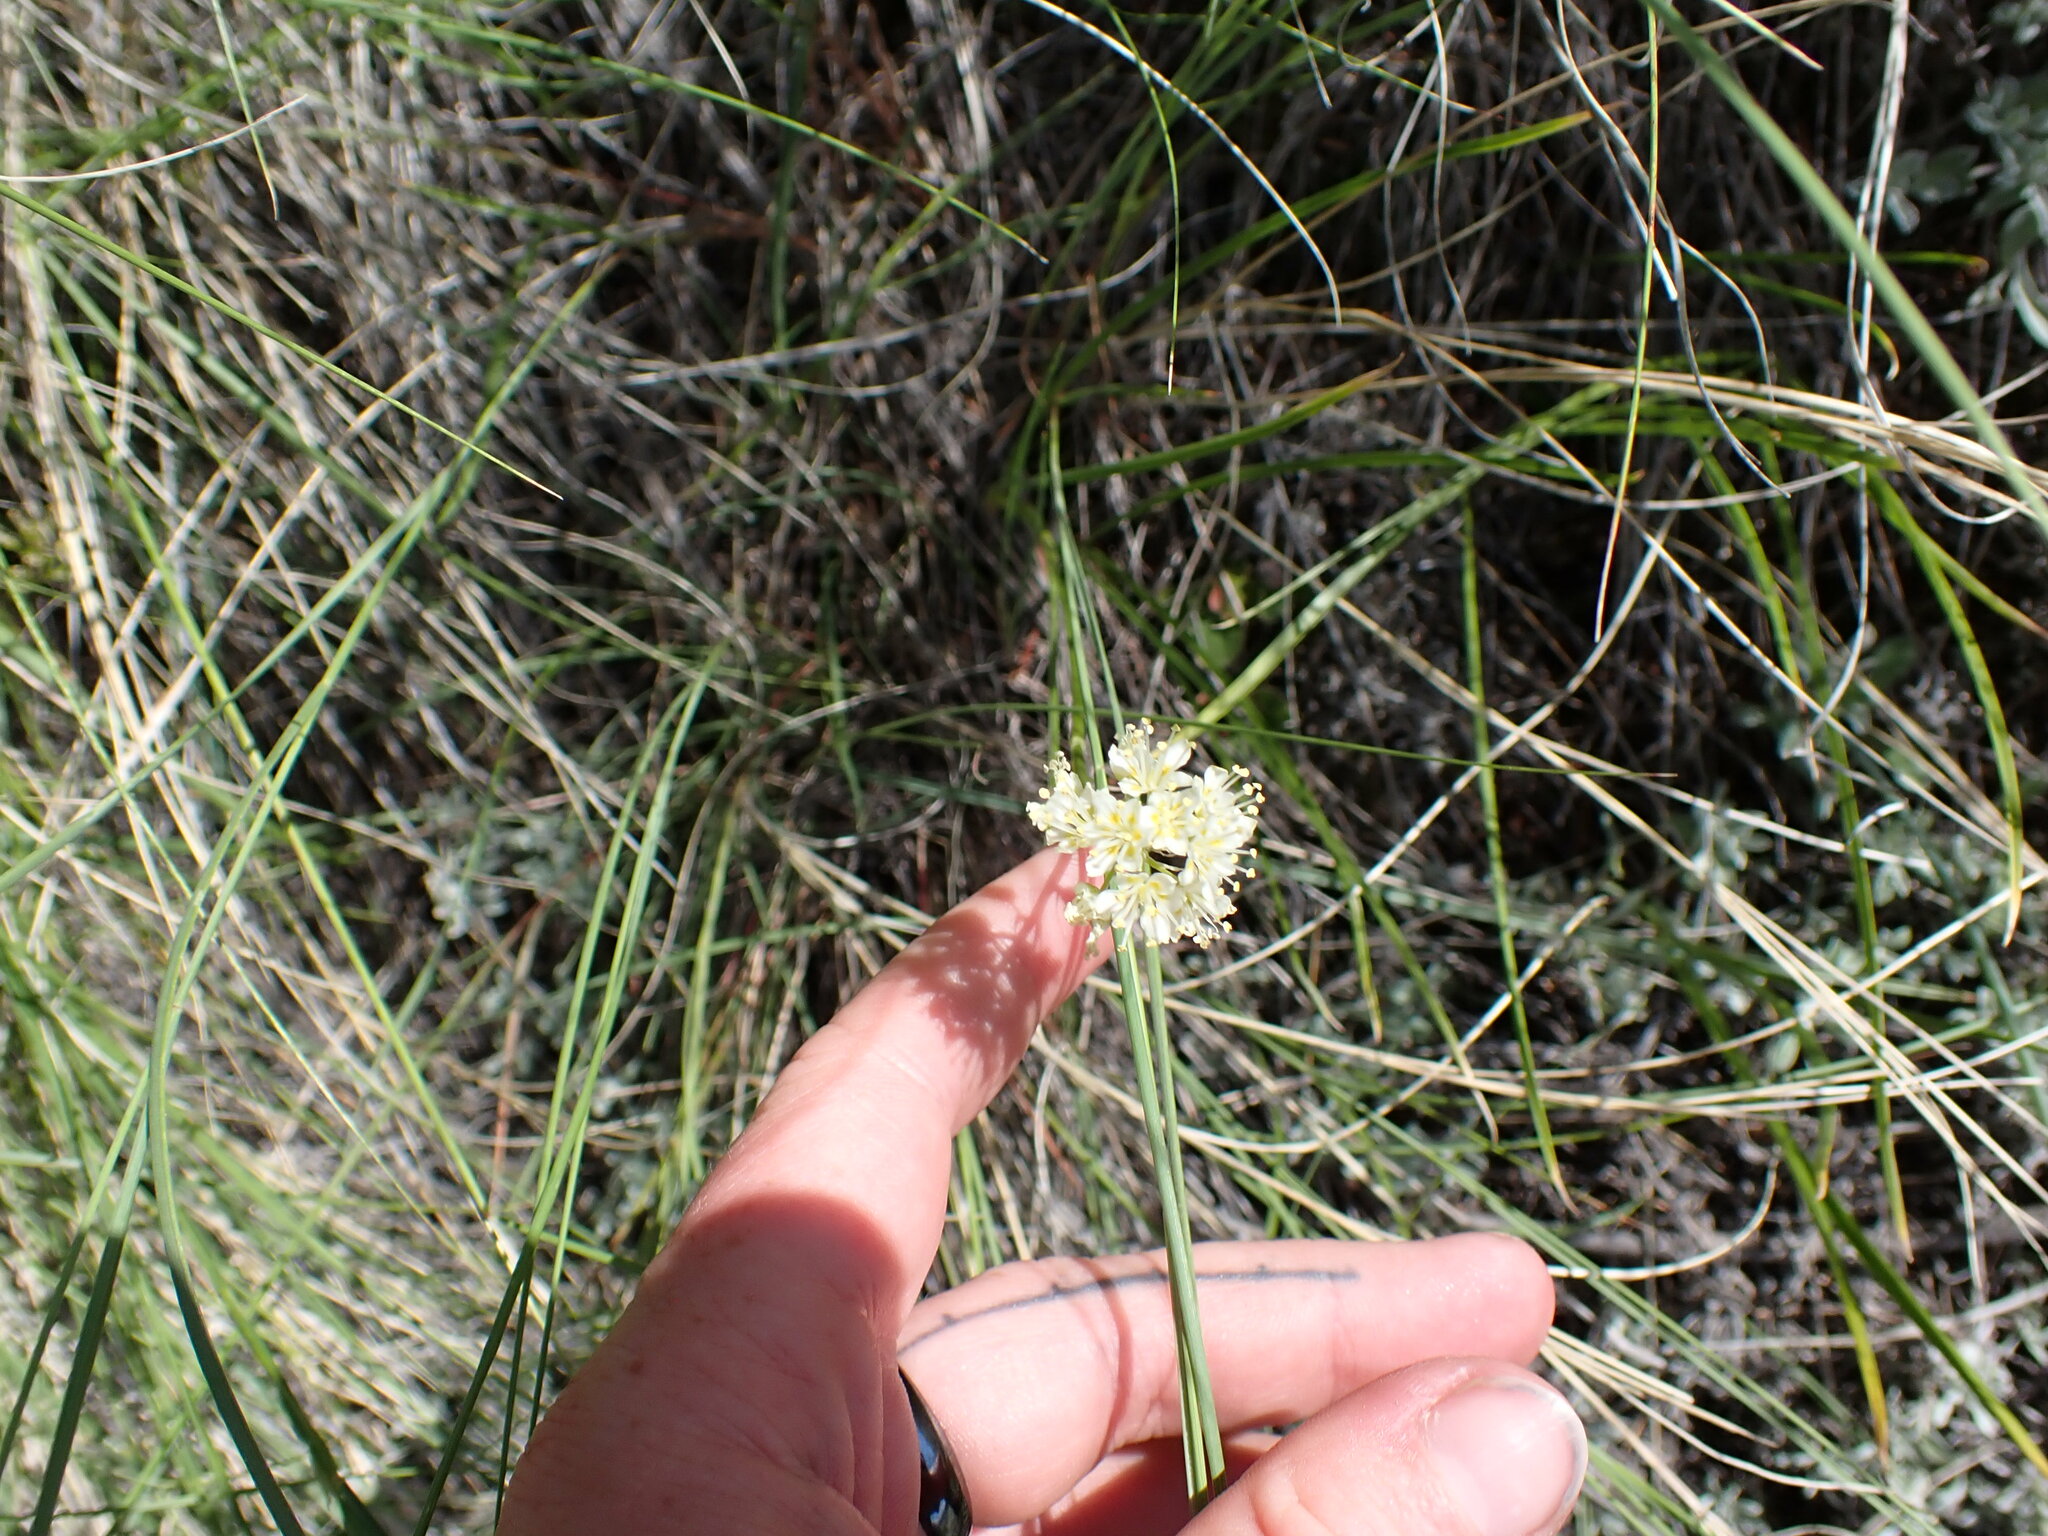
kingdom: Plantae
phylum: Tracheophyta
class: Liliopsida
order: Liliales
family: Melanthiaceae
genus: Toxicoscordion
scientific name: Toxicoscordion venenosum
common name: Meadow death camas
